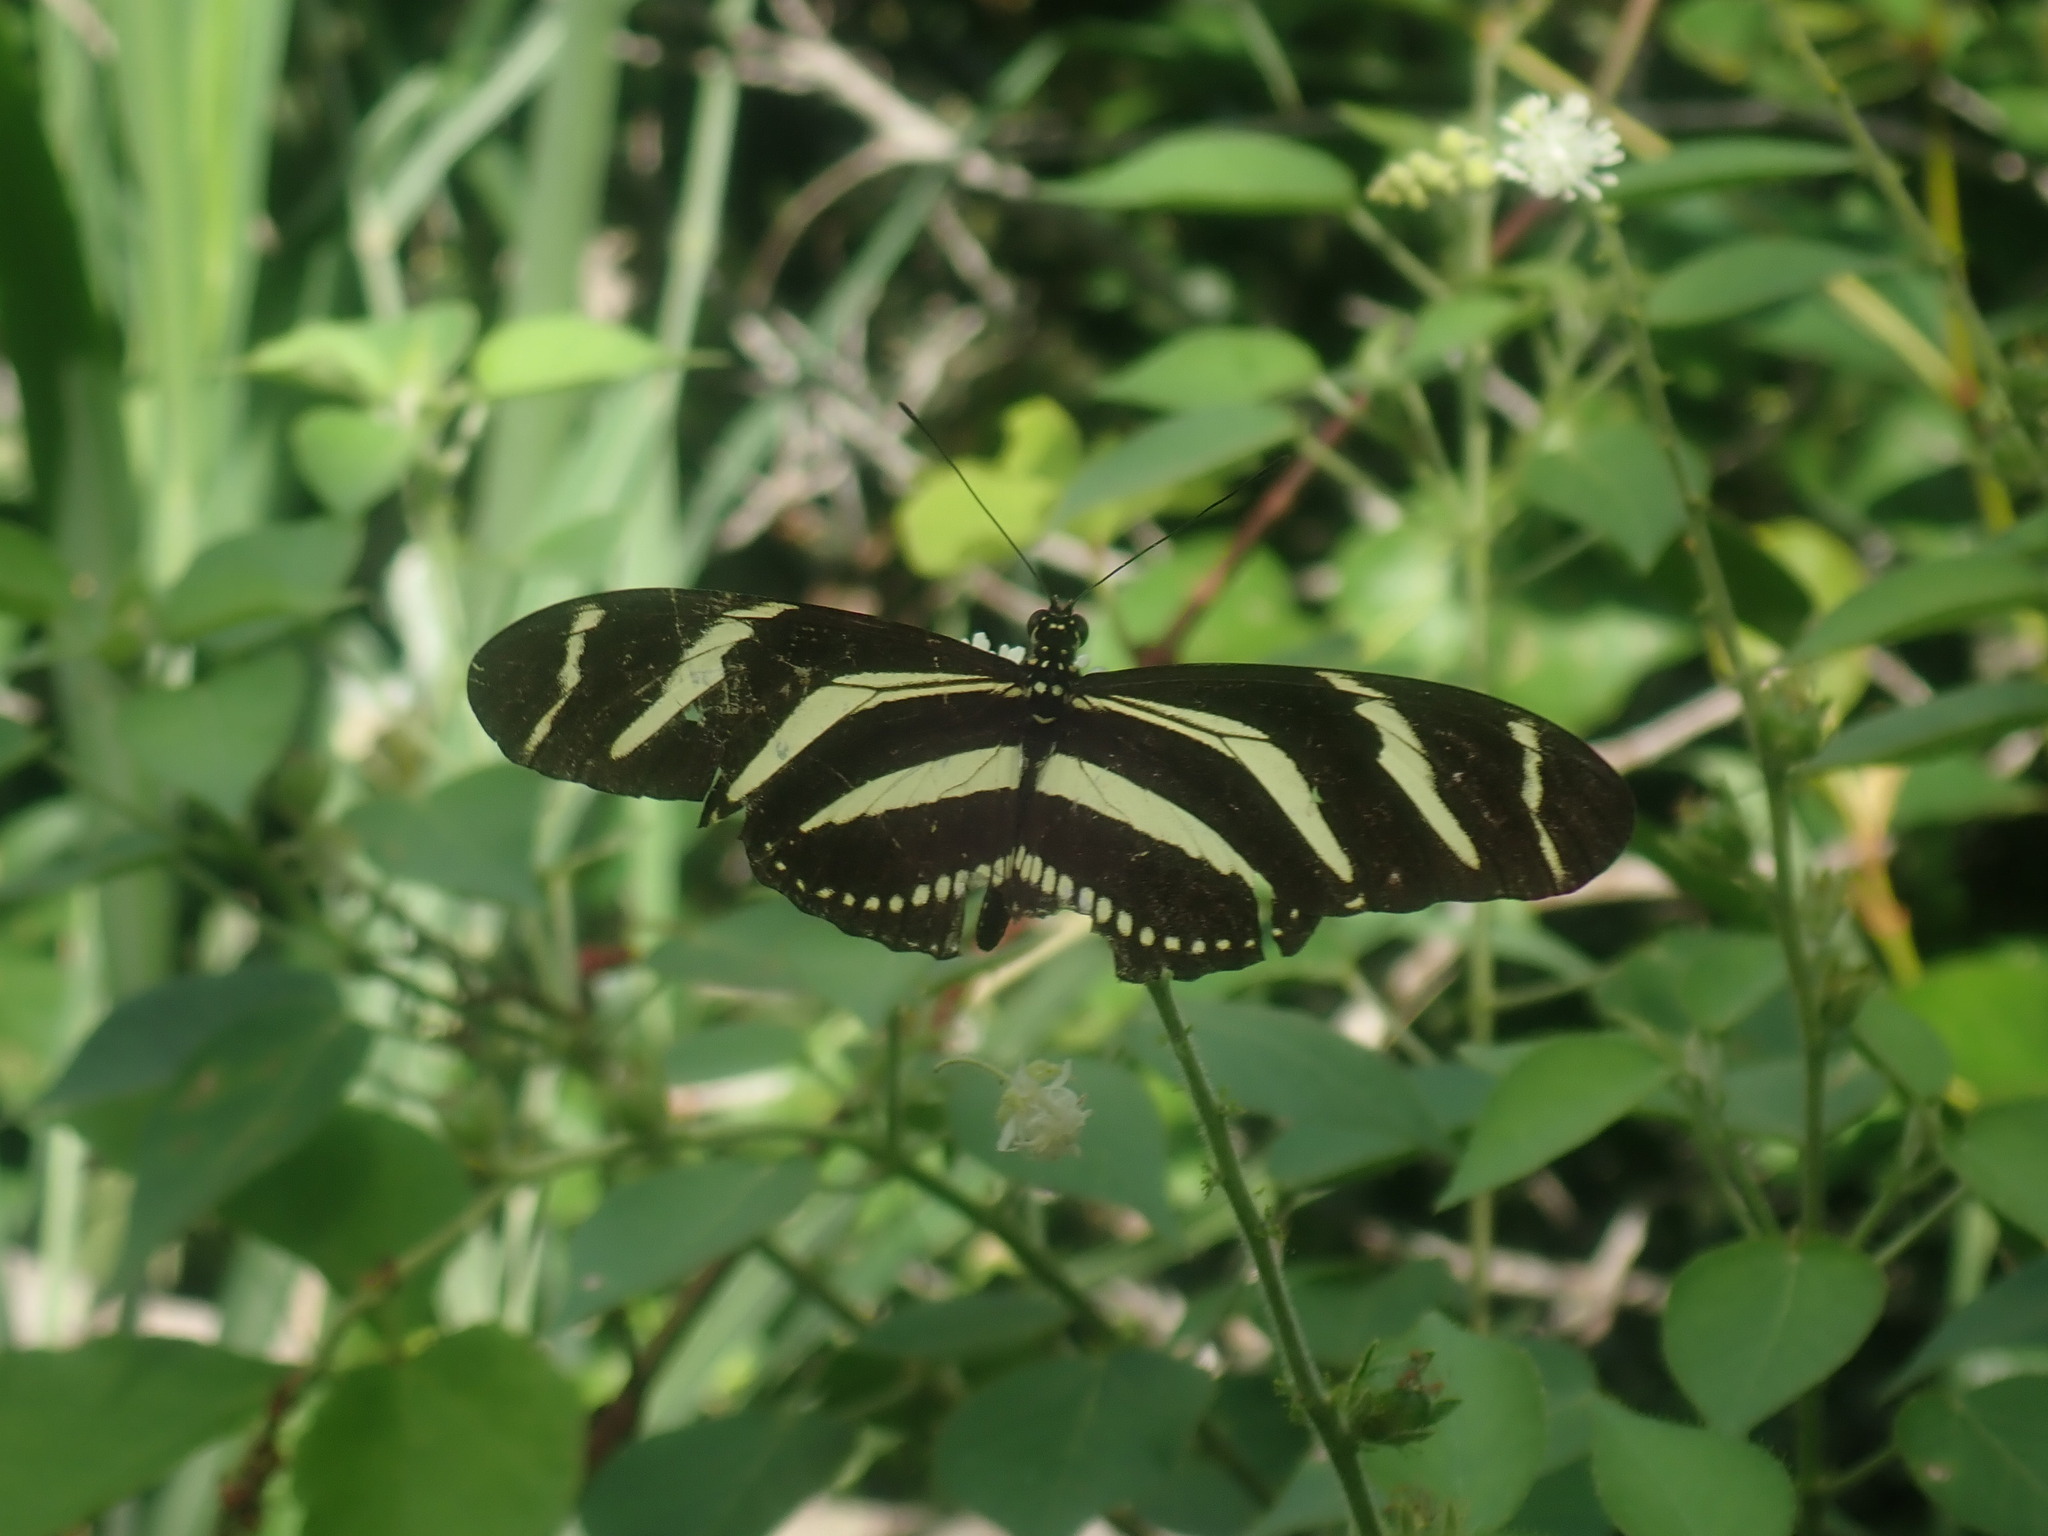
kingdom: Animalia
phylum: Arthropoda
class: Insecta
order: Lepidoptera
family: Nymphalidae
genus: Heliconius
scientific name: Heliconius charithonia
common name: Zebra long wing
